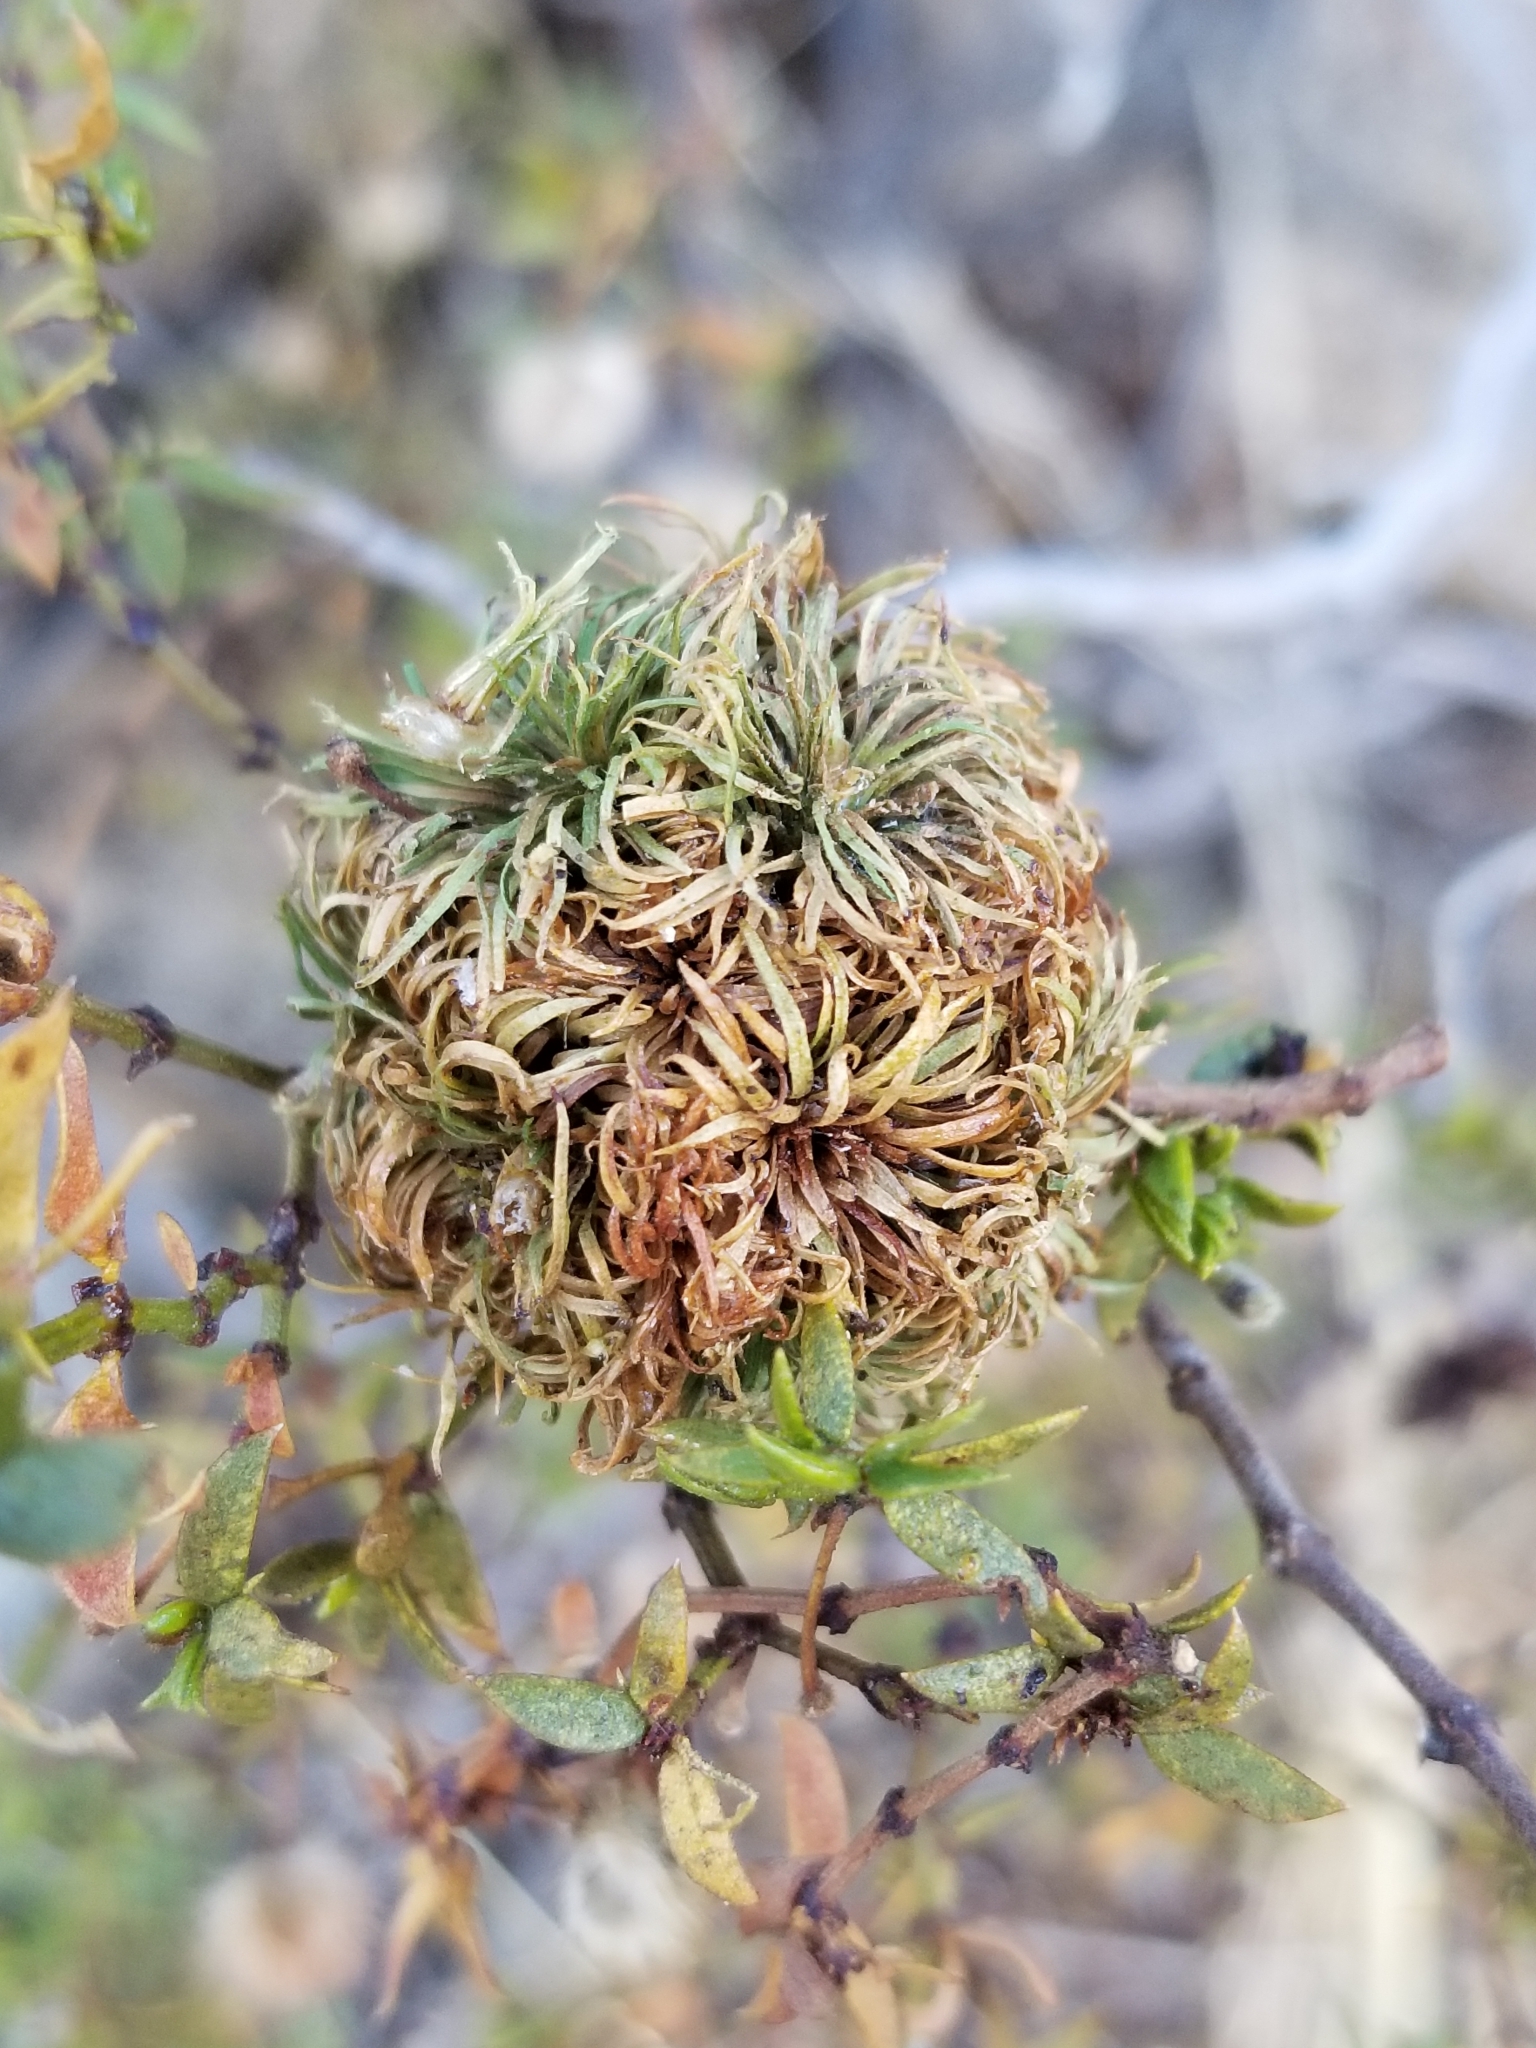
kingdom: Animalia
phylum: Arthropoda
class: Insecta
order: Diptera
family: Cecidomyiidae
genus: Asphondylia
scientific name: Asphondylia auripila
